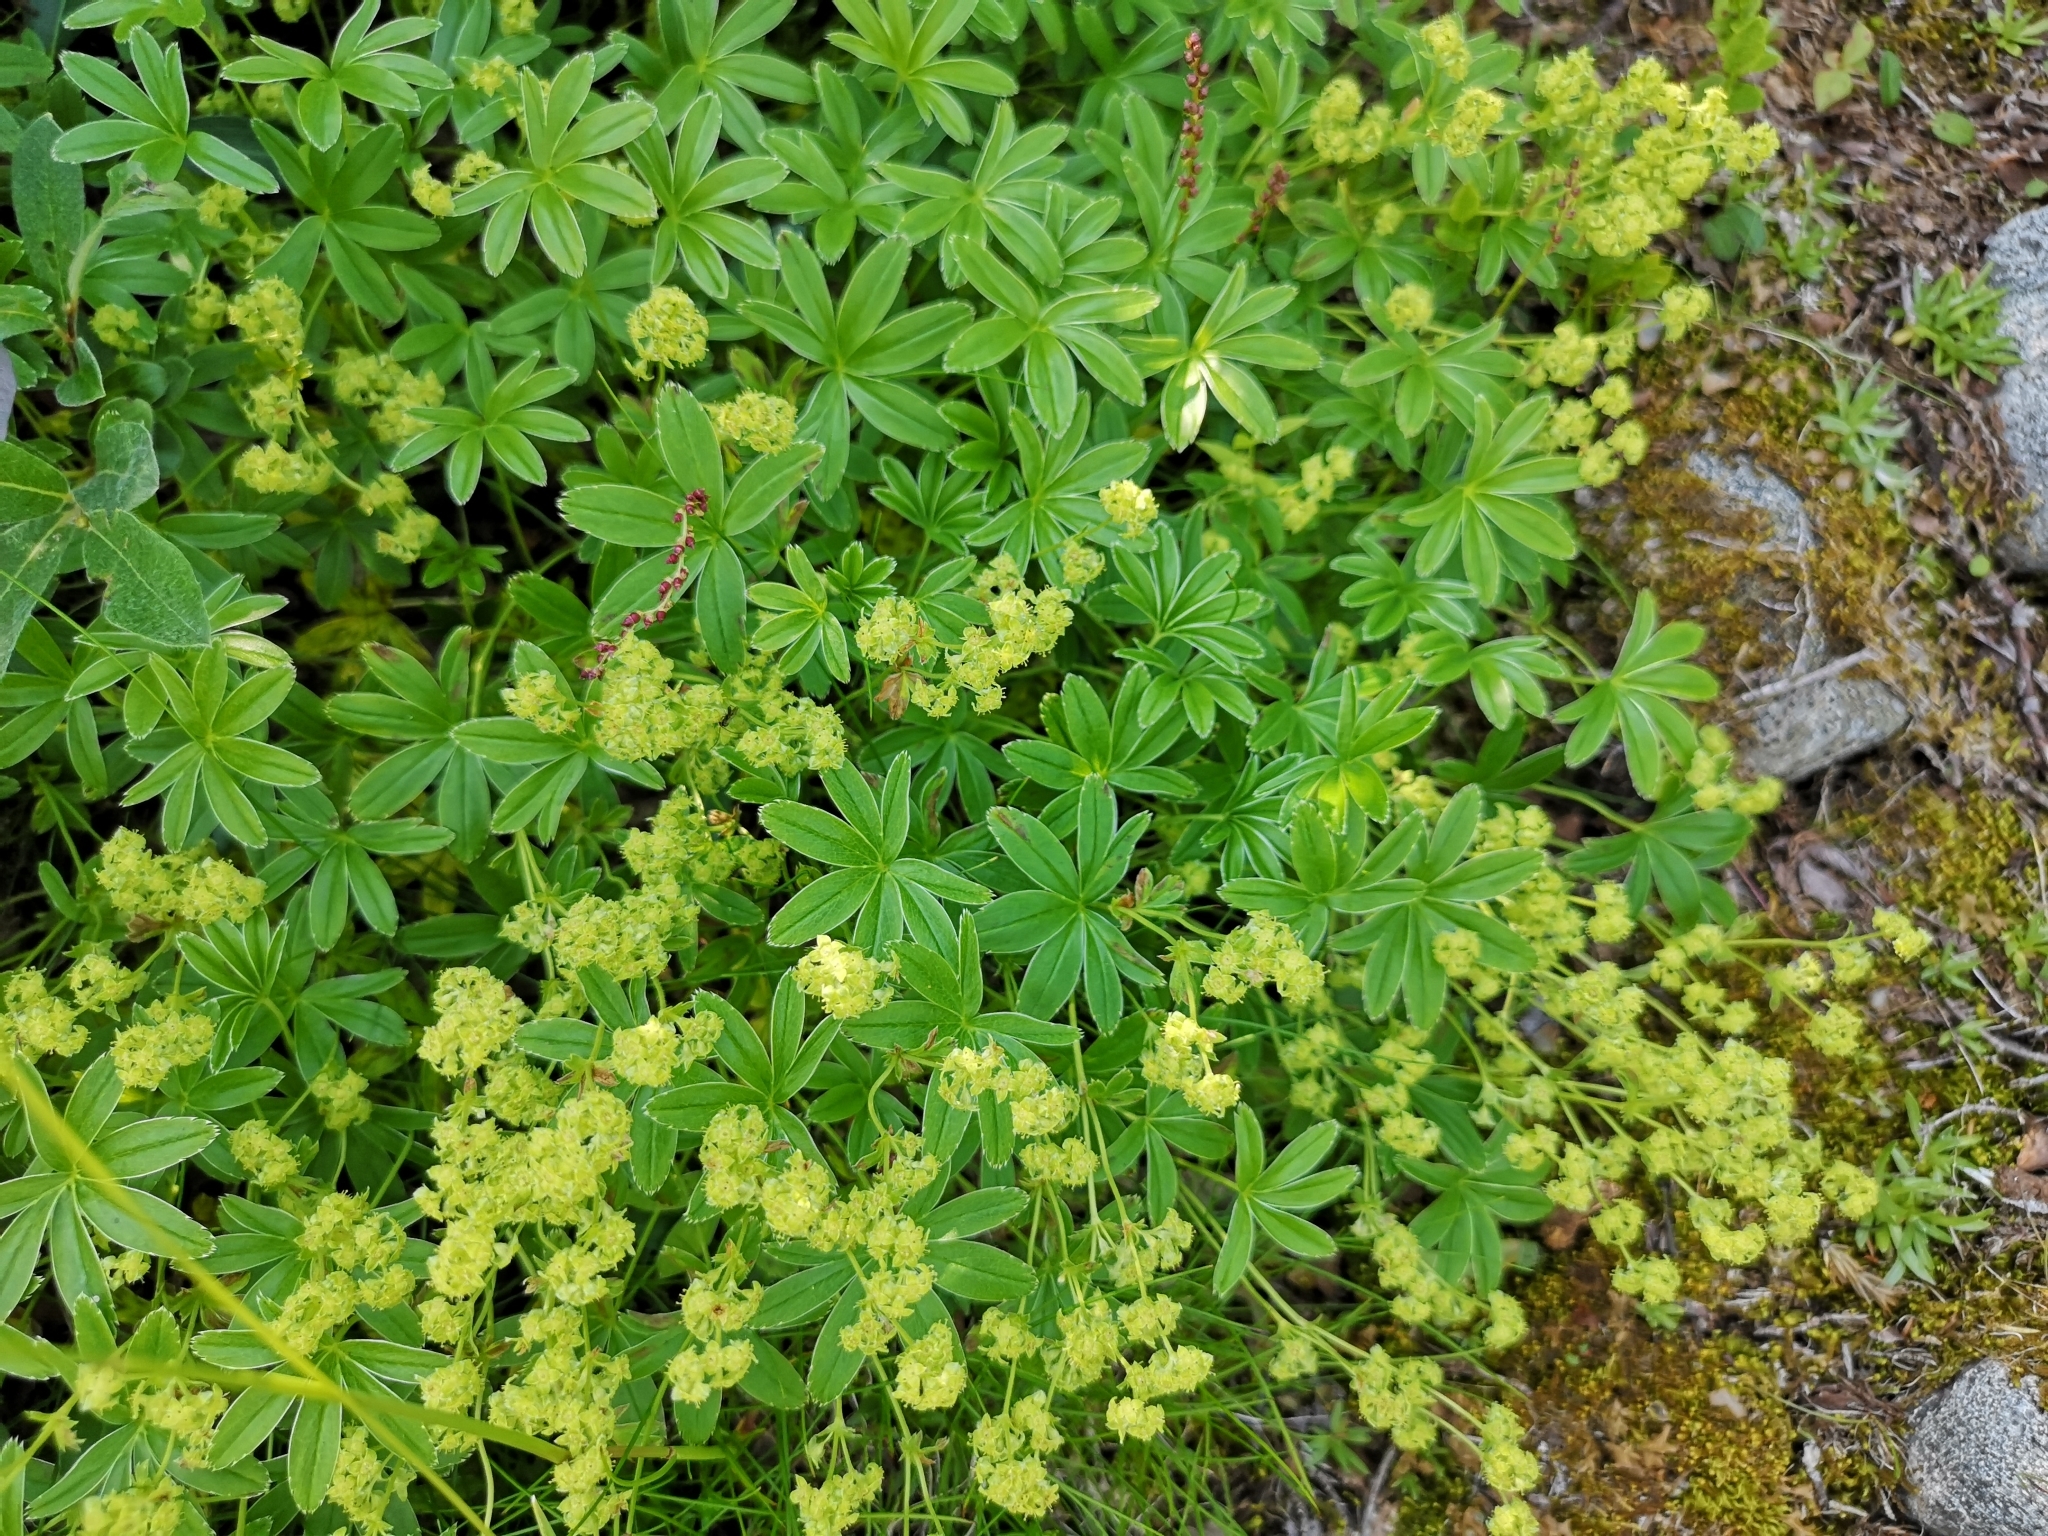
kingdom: Plantae
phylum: Tracheophyta
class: Magnoliopsida
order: Rosales
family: Rosaceae
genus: Alchemilla
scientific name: Alchemilla alpina
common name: Alpine lady's-mantle
